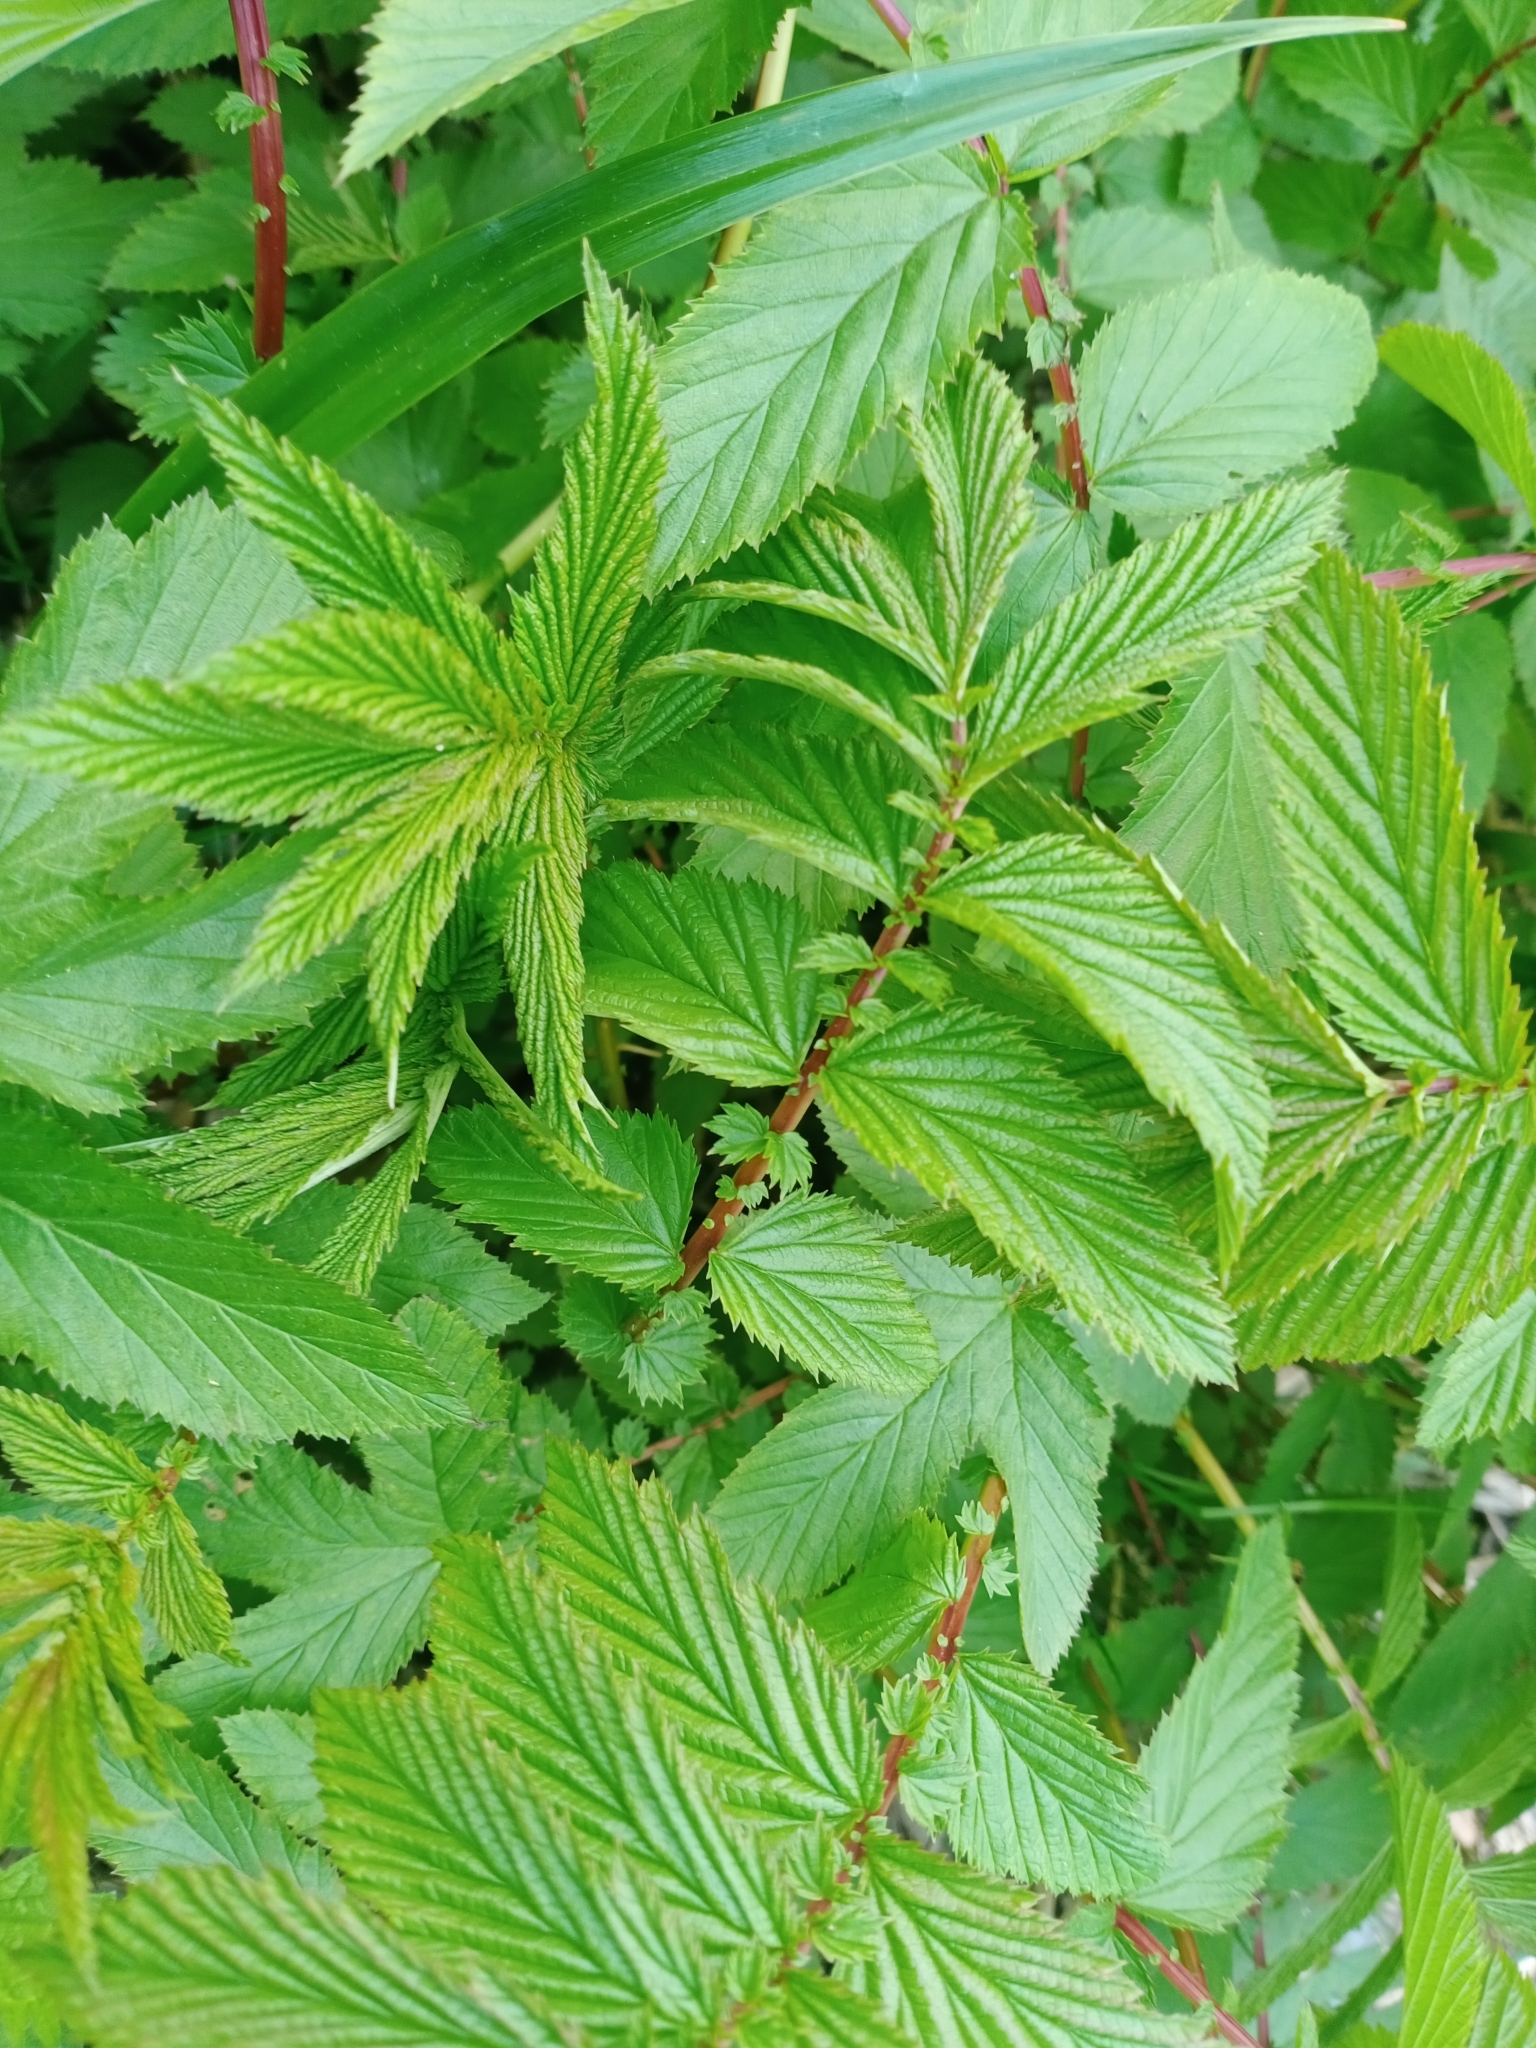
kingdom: Plantae
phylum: Tracheophyta
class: Magnoliopsida
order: Rosales
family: Rosaceae
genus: Filipendula
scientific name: Filipendula ulmaria
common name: Meadowsweet
